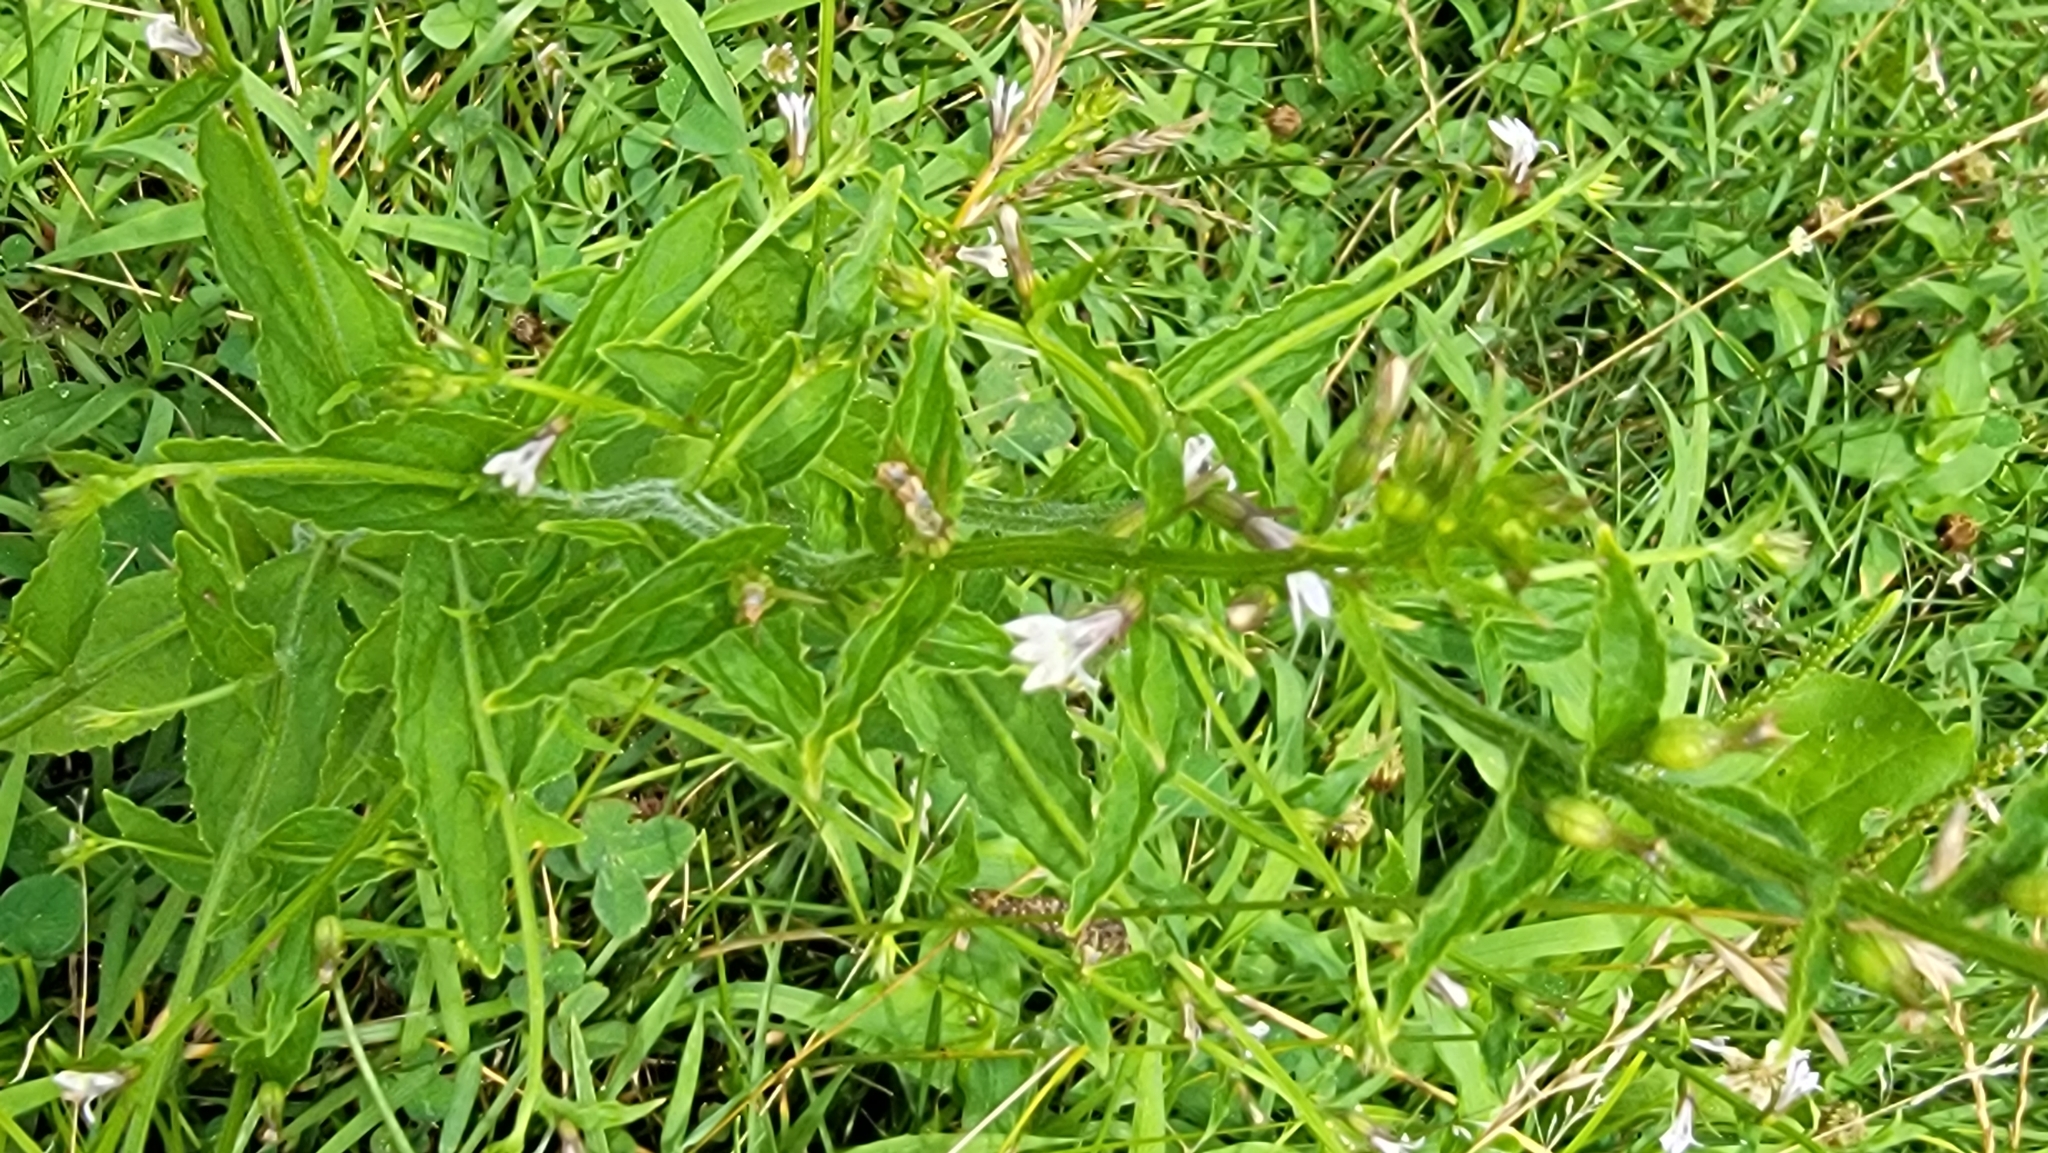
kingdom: Plantae
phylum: Tracheophyta
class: Magnoliopsida
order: Asterales
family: Campanulaceae
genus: Lobelia
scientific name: Lobelia inflata
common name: Indian tobacco
